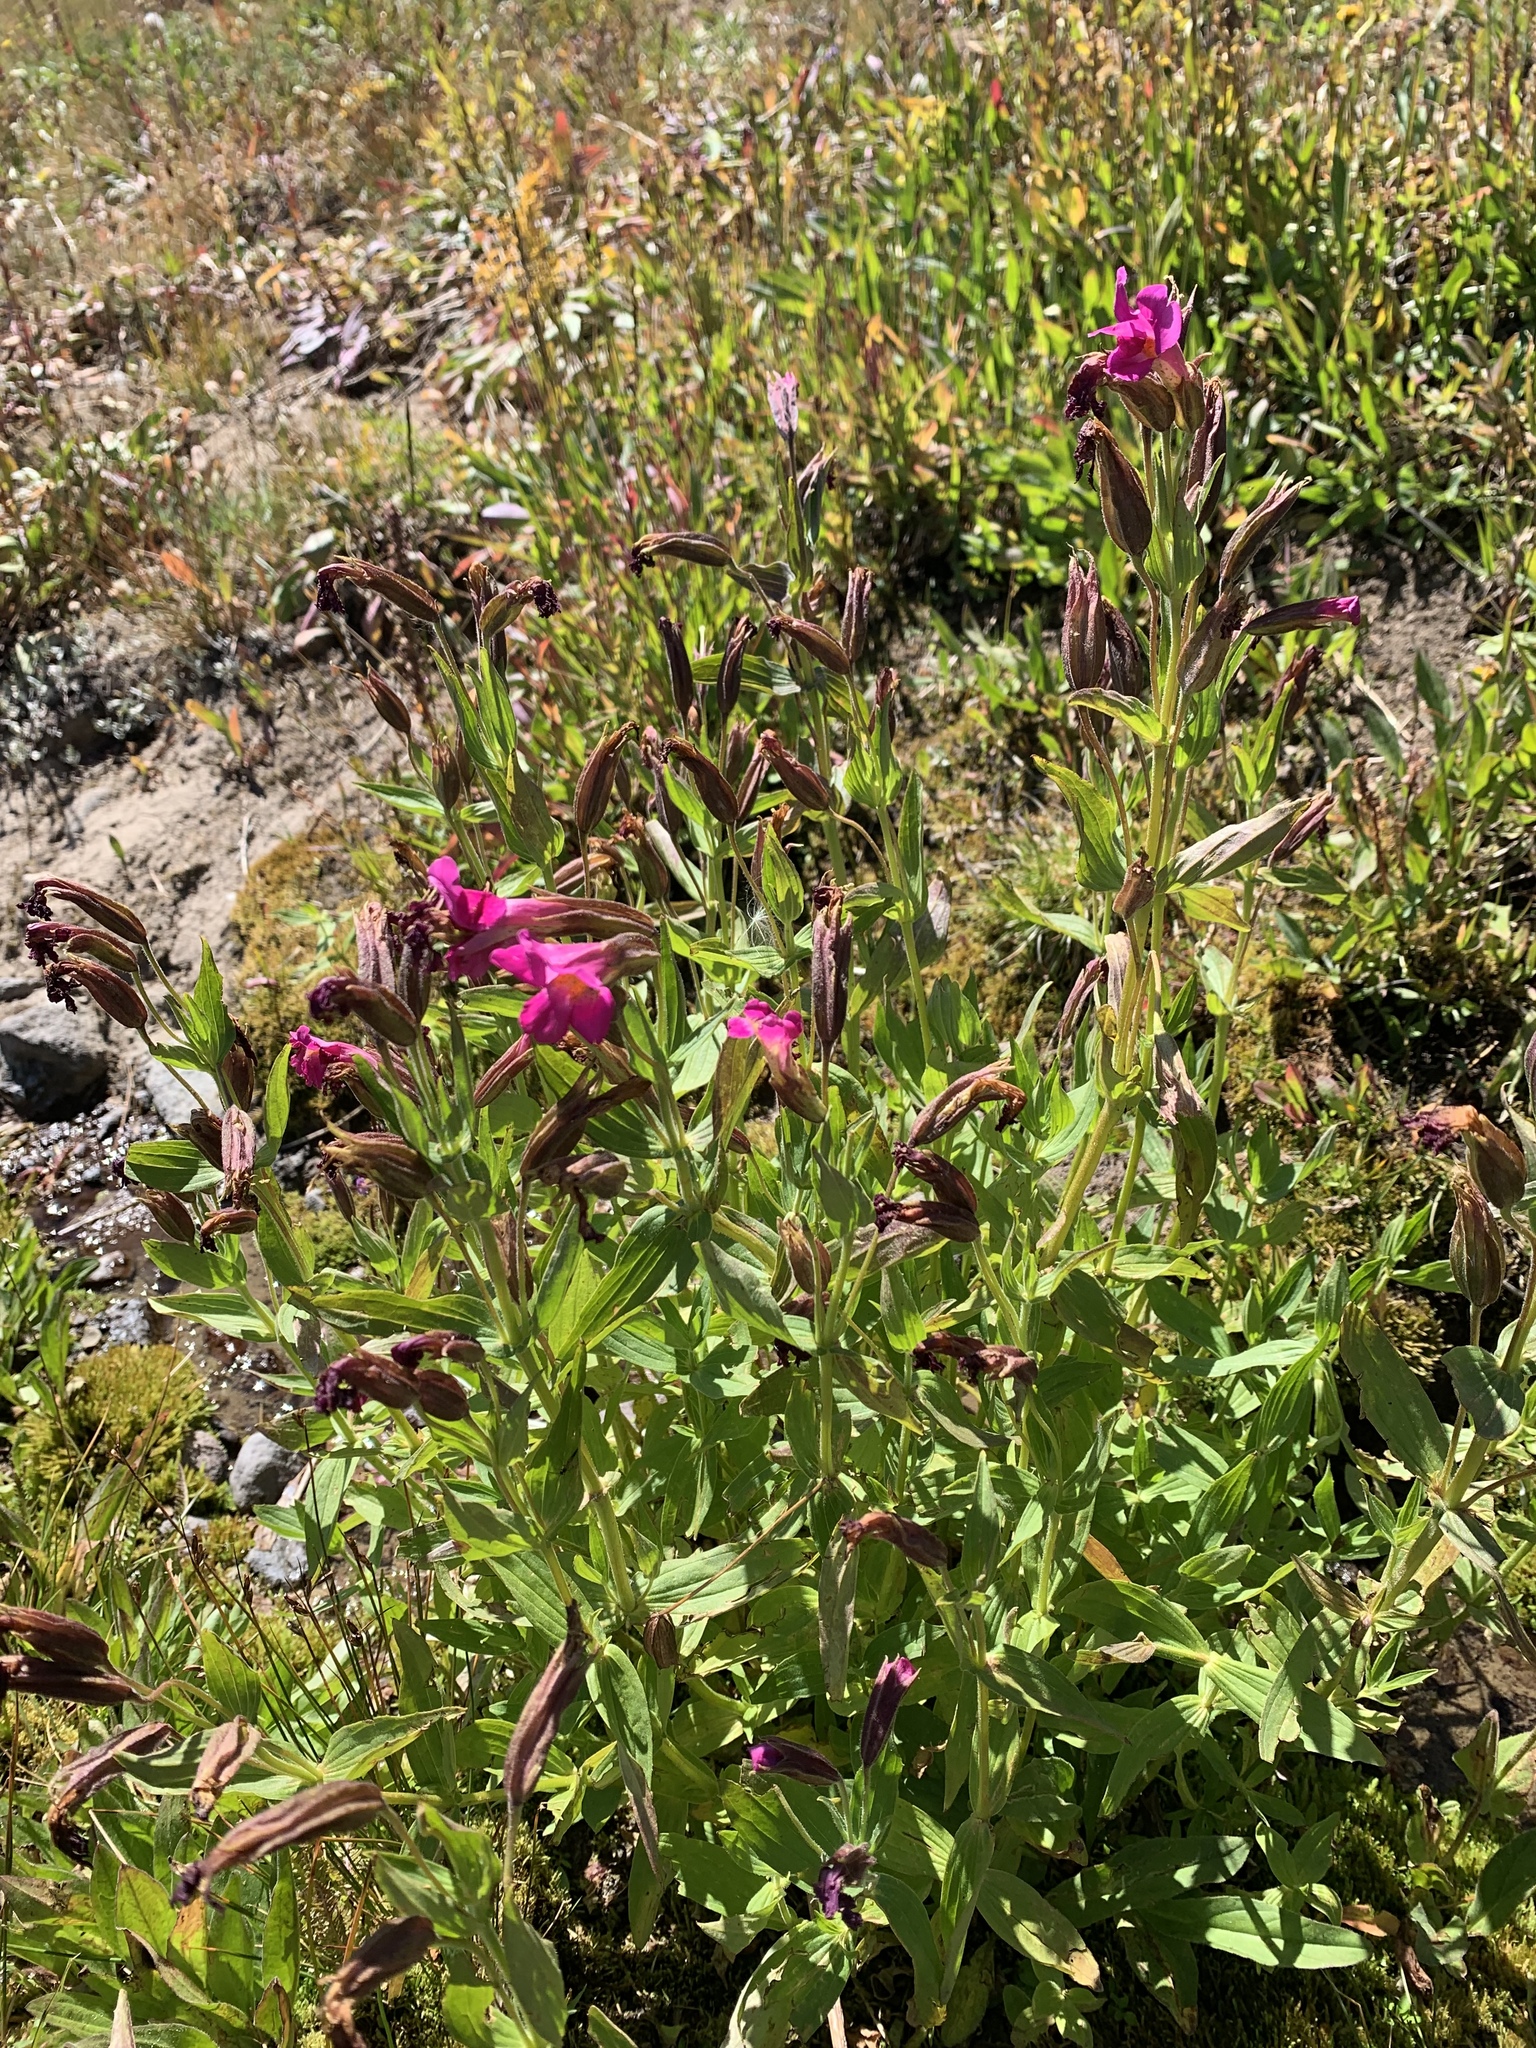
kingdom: Plantae
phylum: Tracheophyta
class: Magnoliopsida
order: Lamiales
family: Phrymaceae
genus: Erythranthe
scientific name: Erythranthe lewisii
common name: Lewis's monkey-flower
